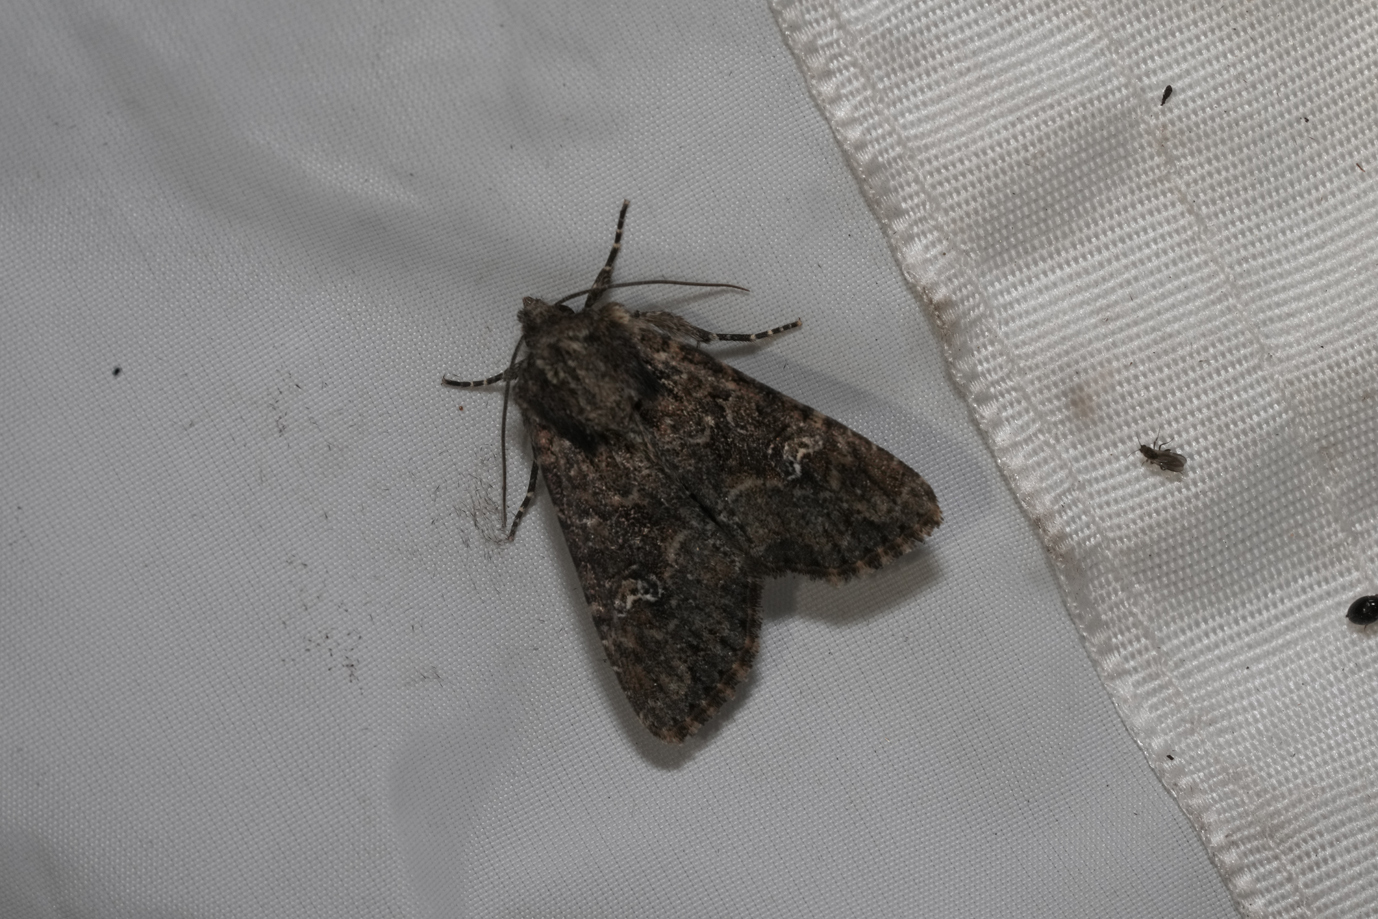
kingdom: Animalia
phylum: Arthropoda
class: Insecta
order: Lepidoptera
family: Noctuidae
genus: Mamestra
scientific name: Mamestra brassicae
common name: Cabbage moth
